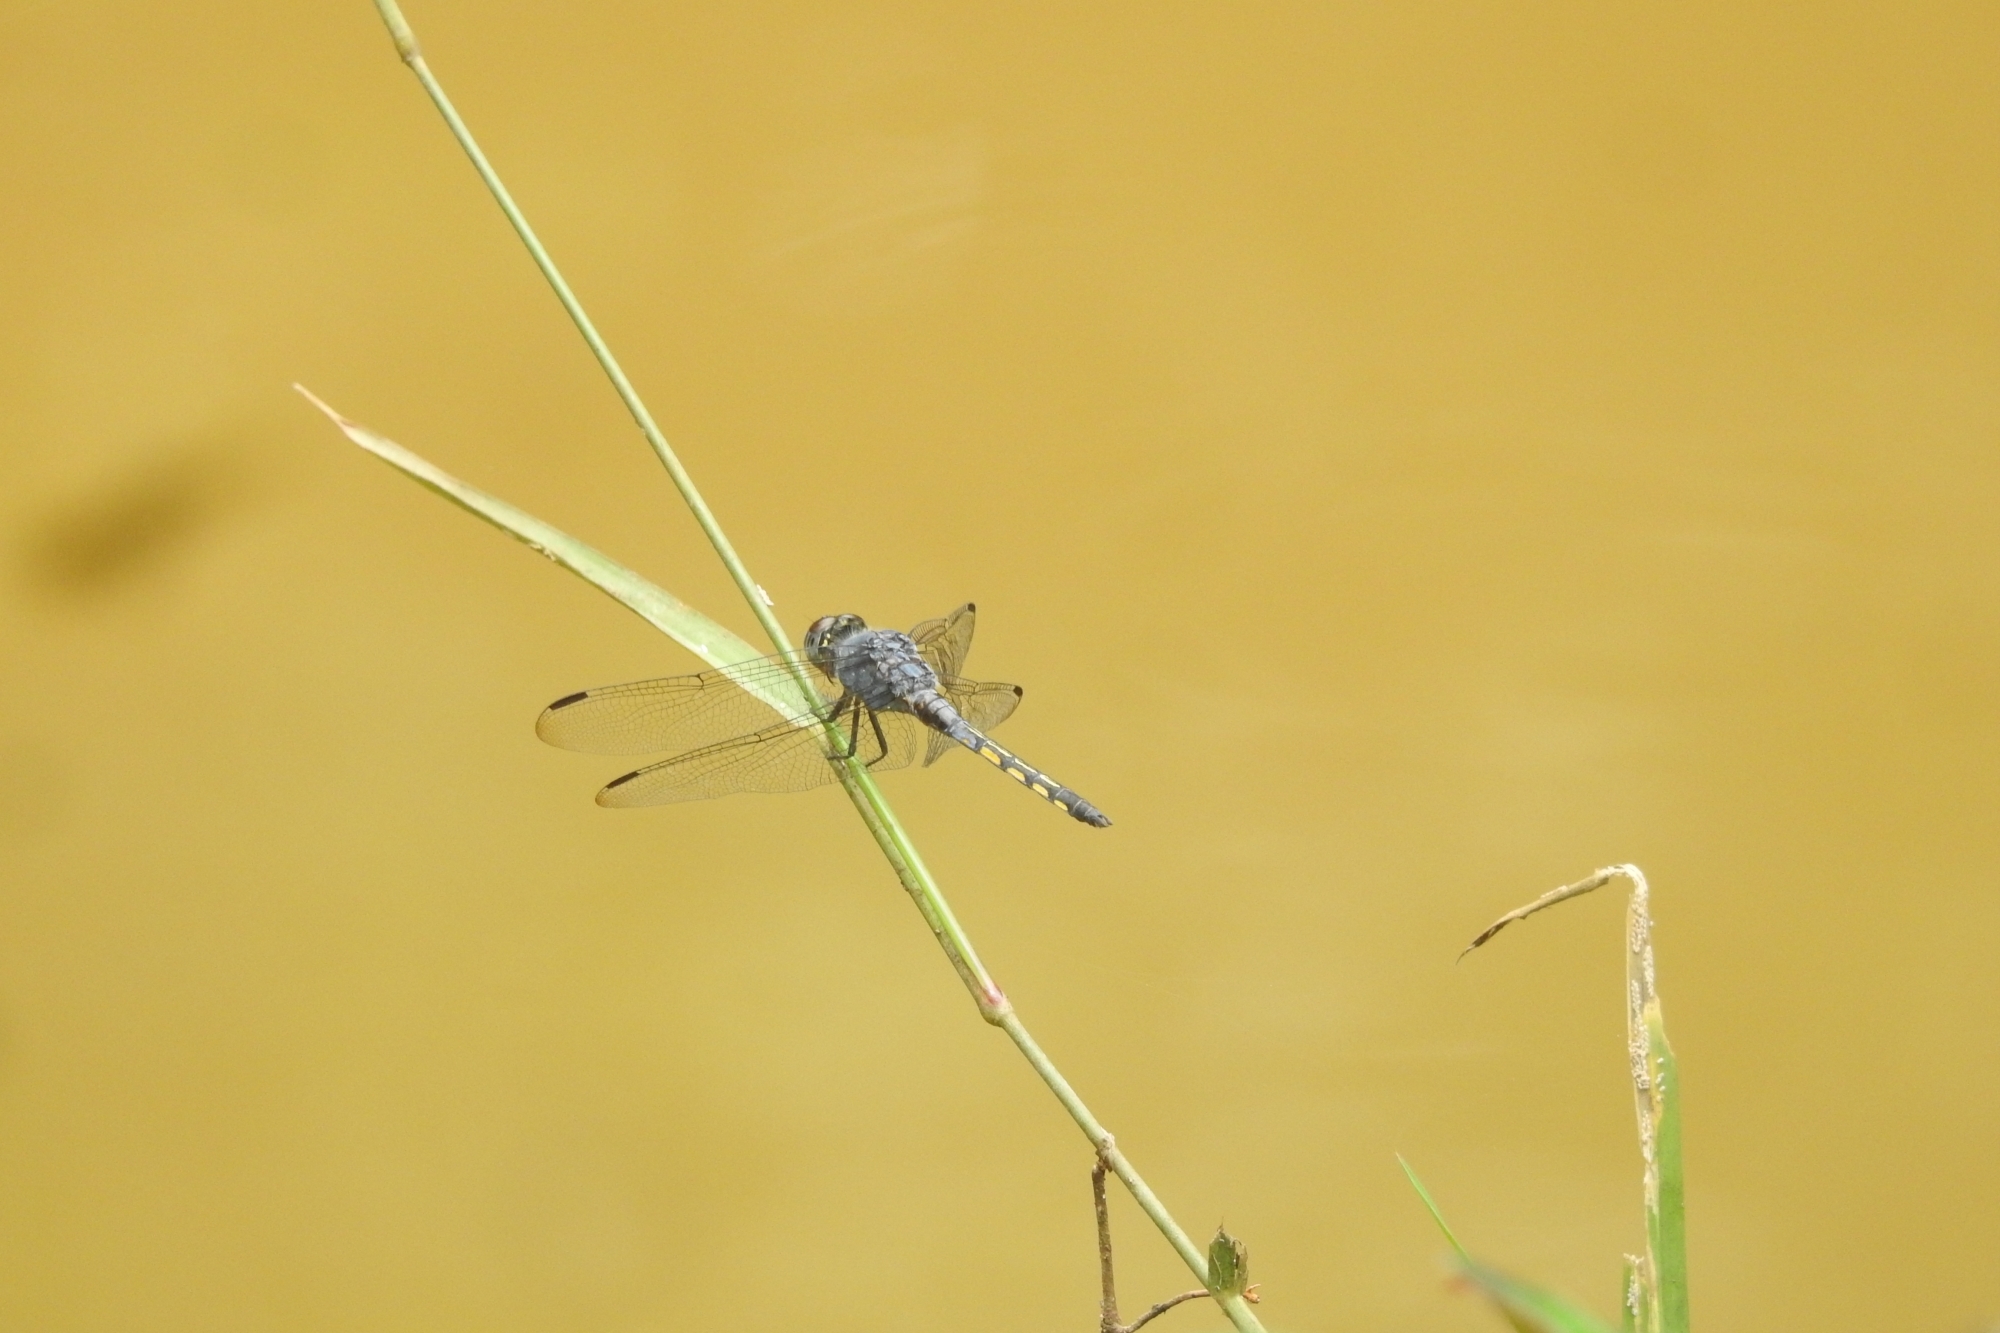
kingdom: Animalia
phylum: Arthropoda
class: Insecta
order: Odonata
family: Libellulidae
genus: Potamarcha
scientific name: Potamarcha congener
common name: Blue chaser
